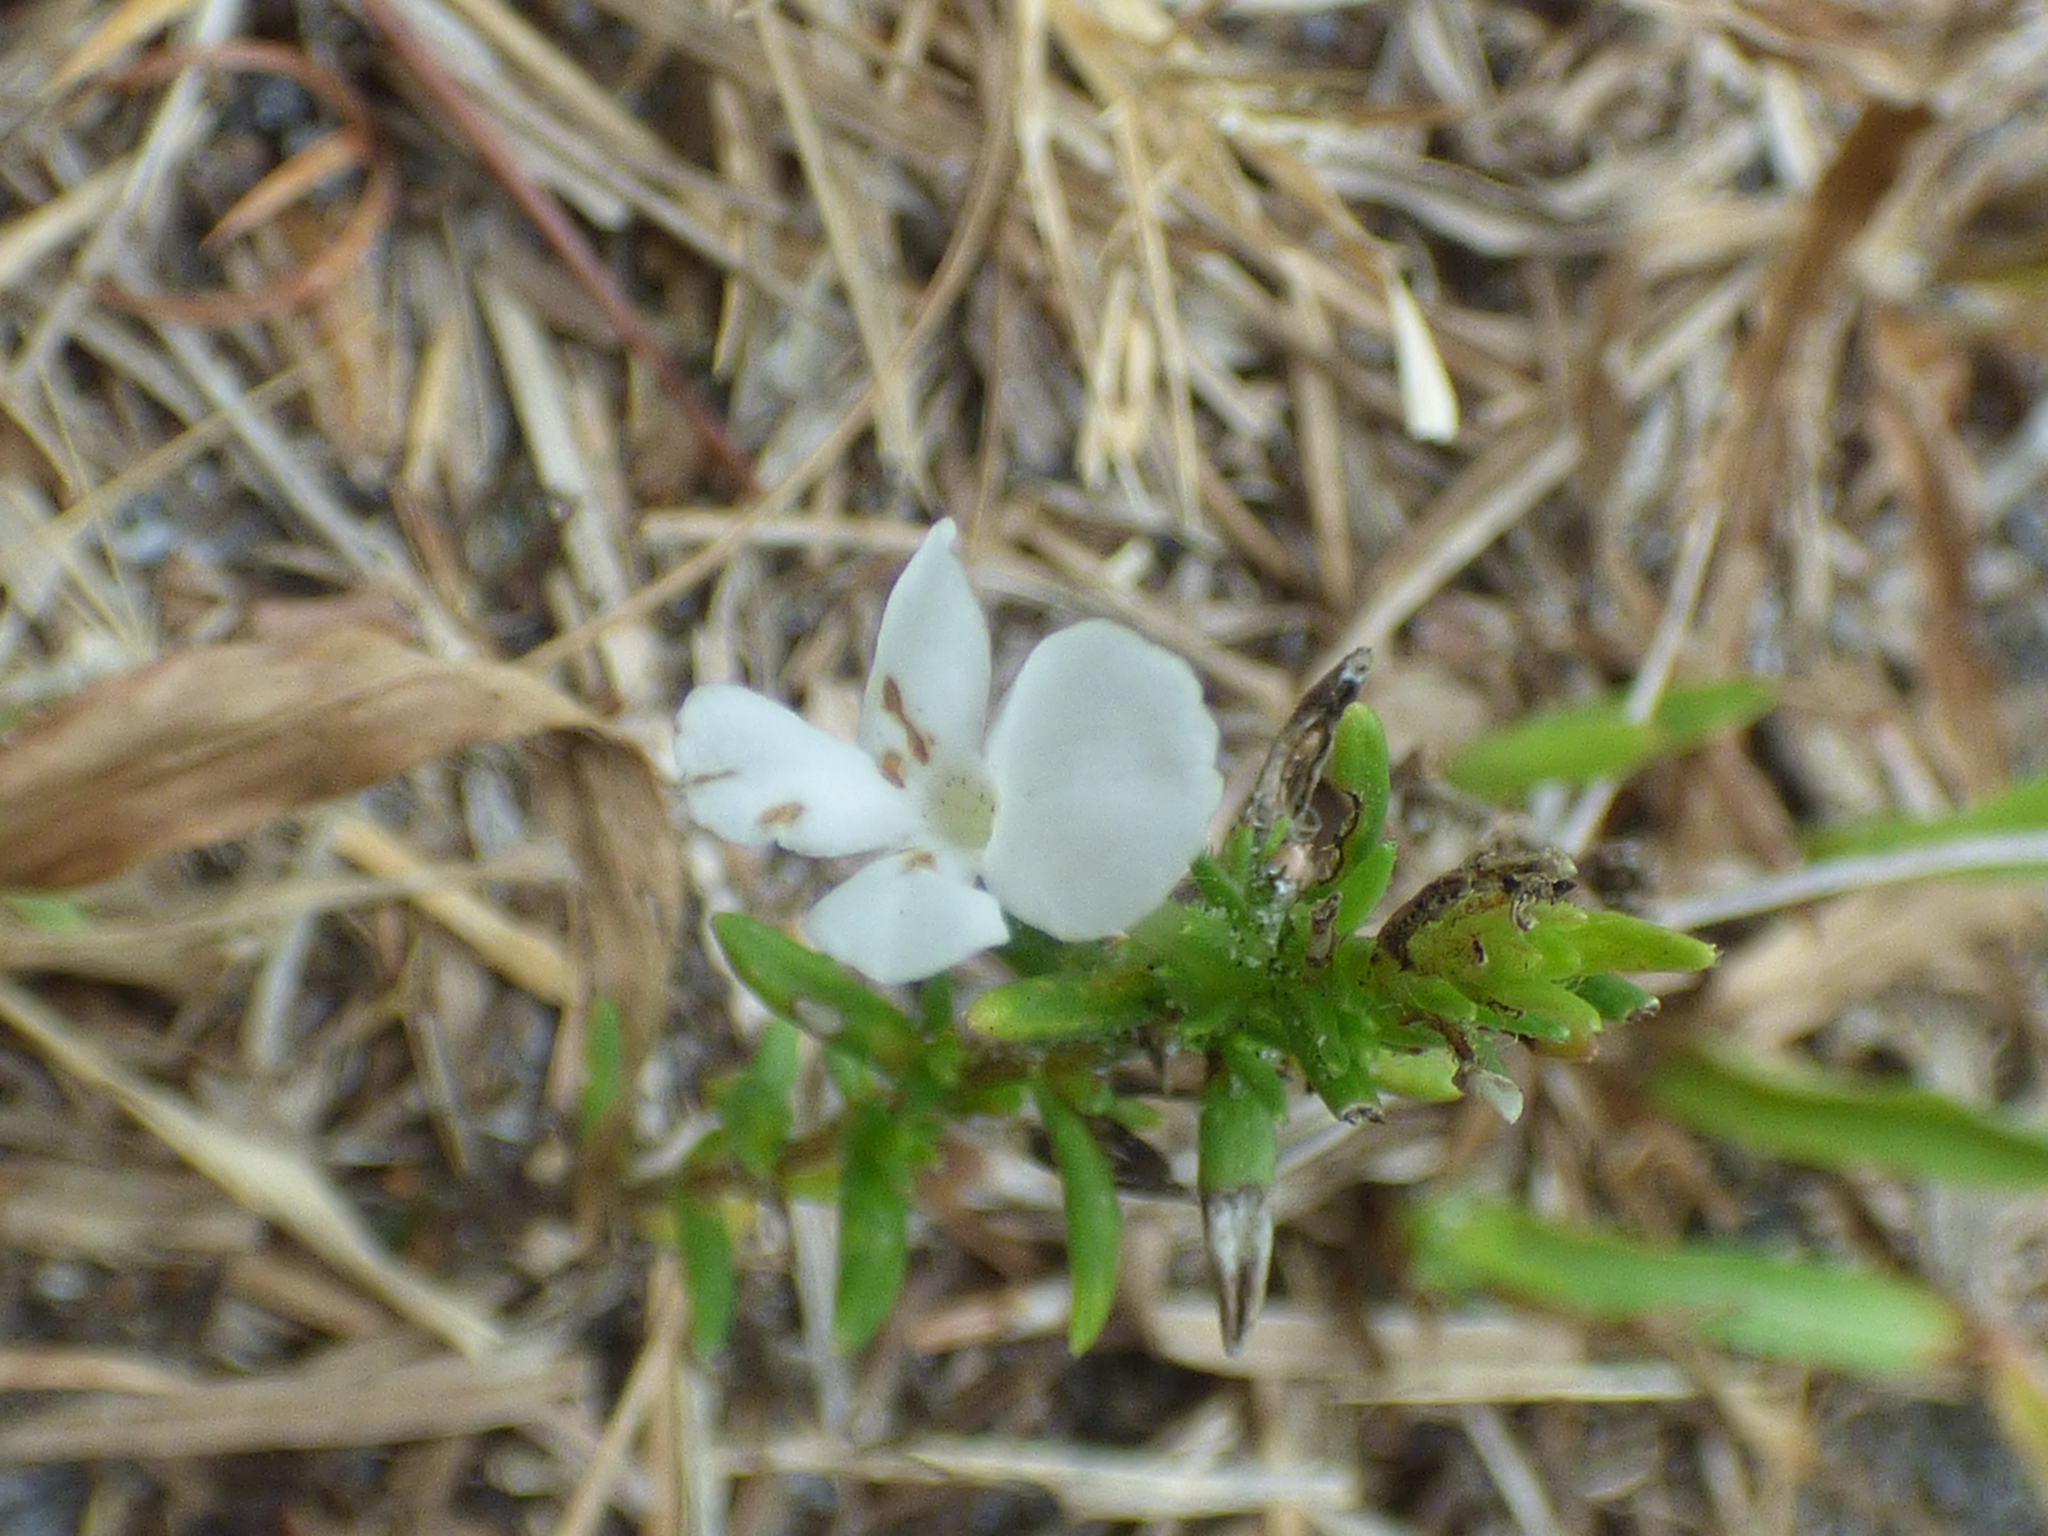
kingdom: Plantae
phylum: Tracheophyta
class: Magnoliopsida
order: Lamiales
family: Plantaginaceae
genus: Gratiola
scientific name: Gratiola hispida
